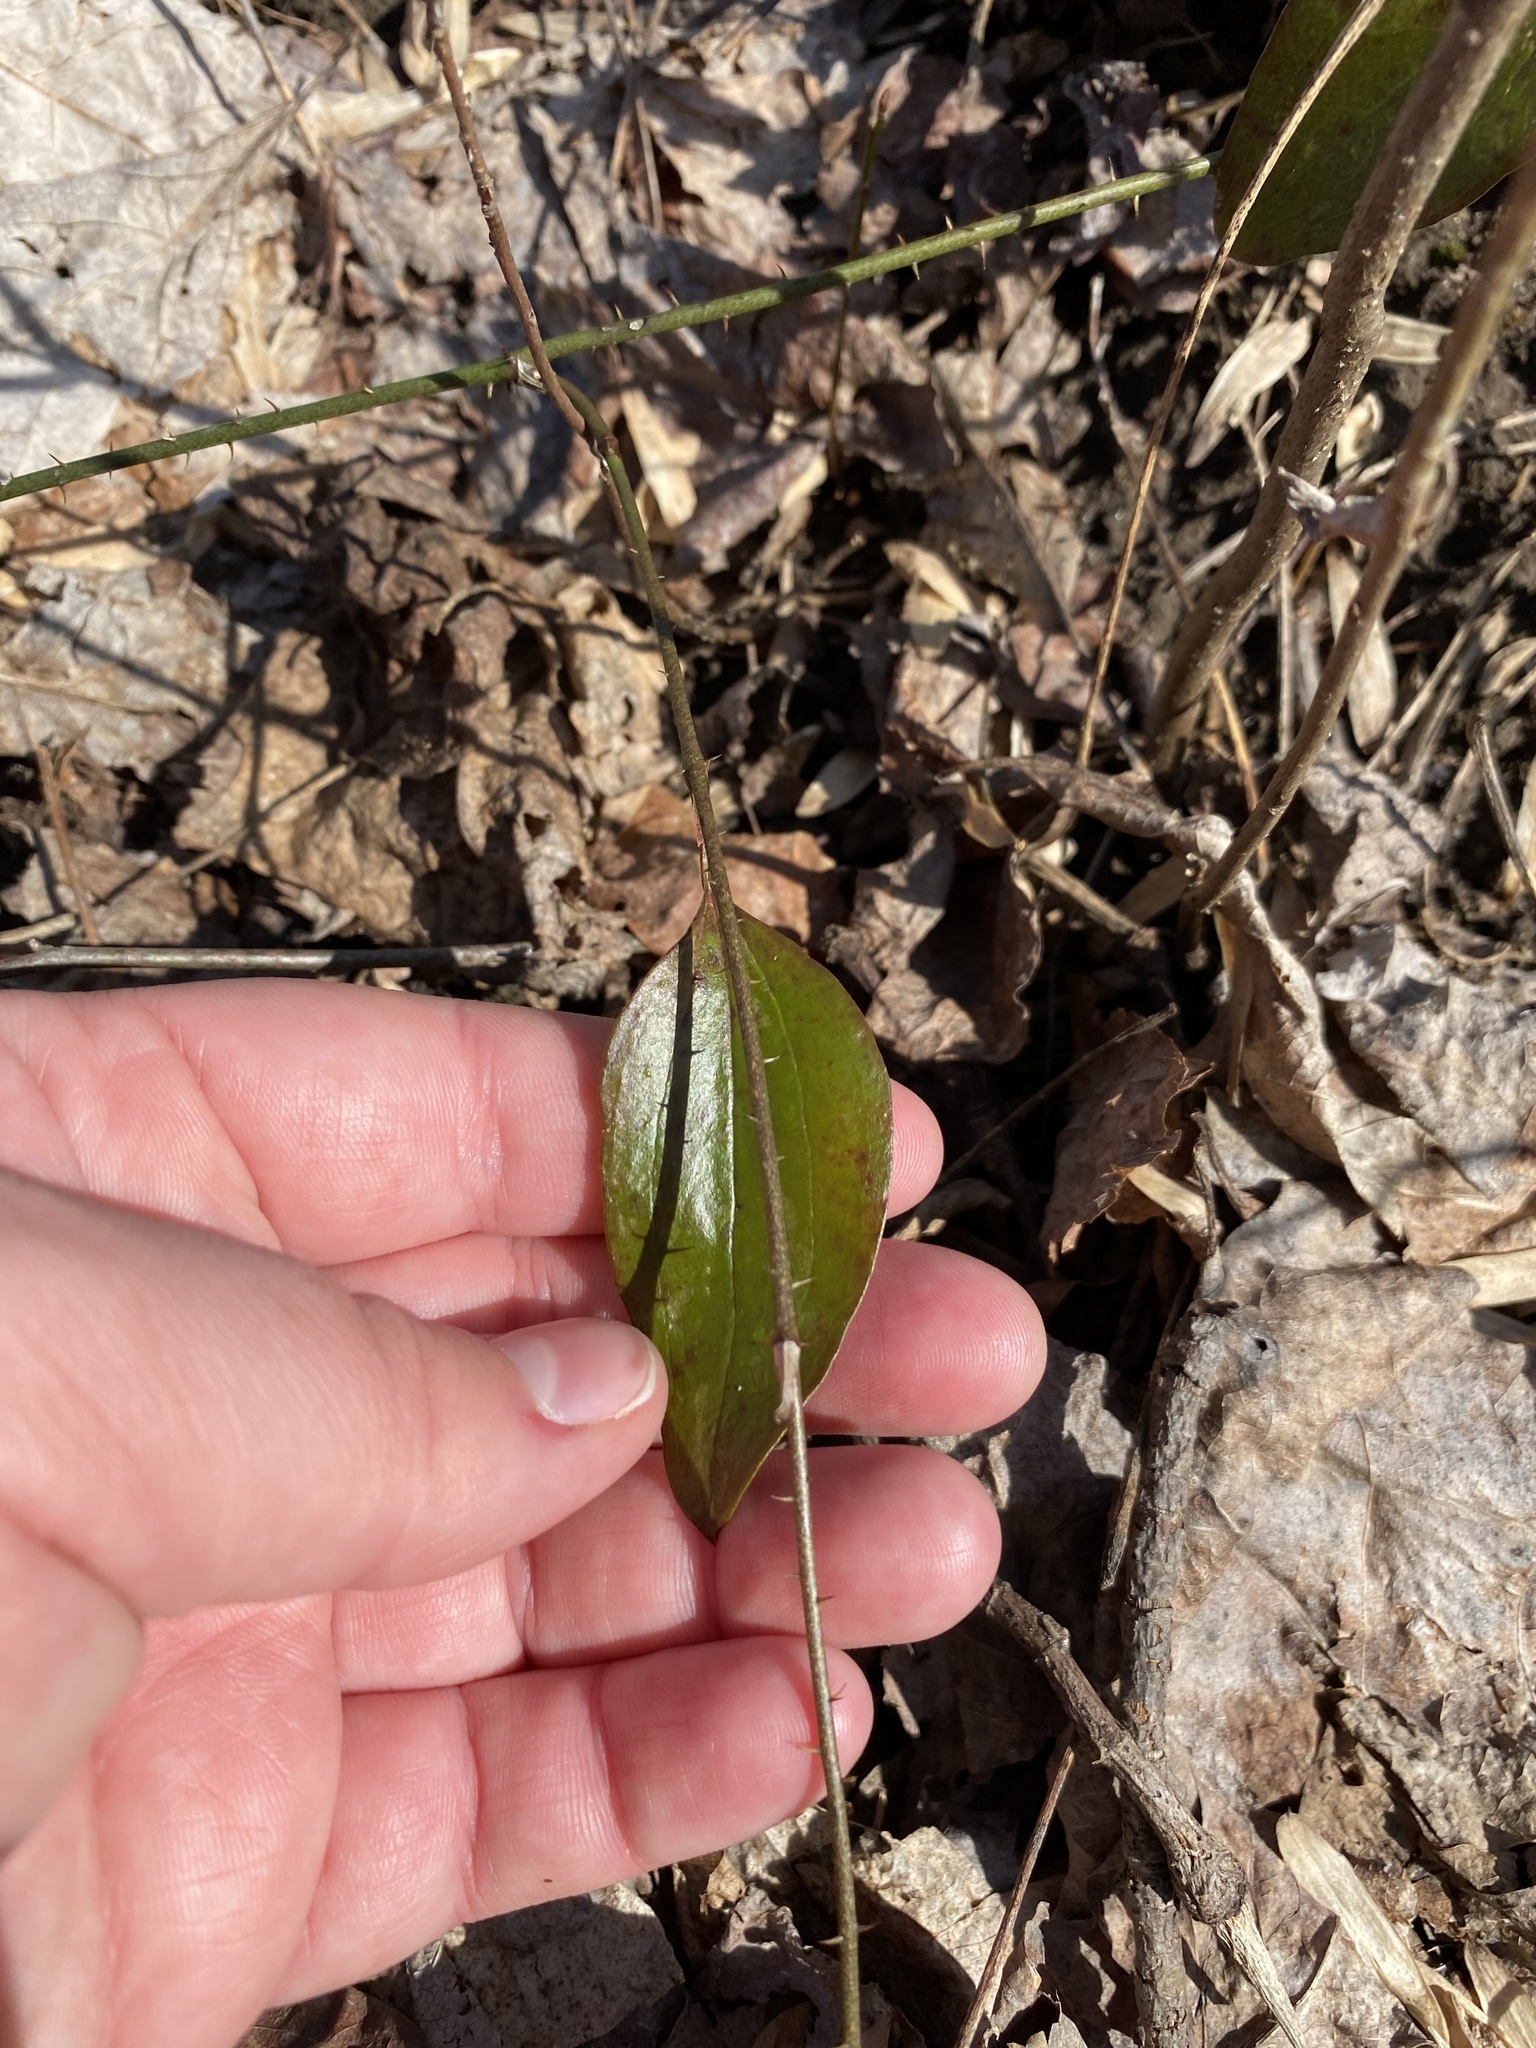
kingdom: Plantae
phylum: Tracheophyta
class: Liliopsida
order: Liliales
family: Smilacaceae
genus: Smilax
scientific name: Smilax glauca
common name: Cat greenbrier
